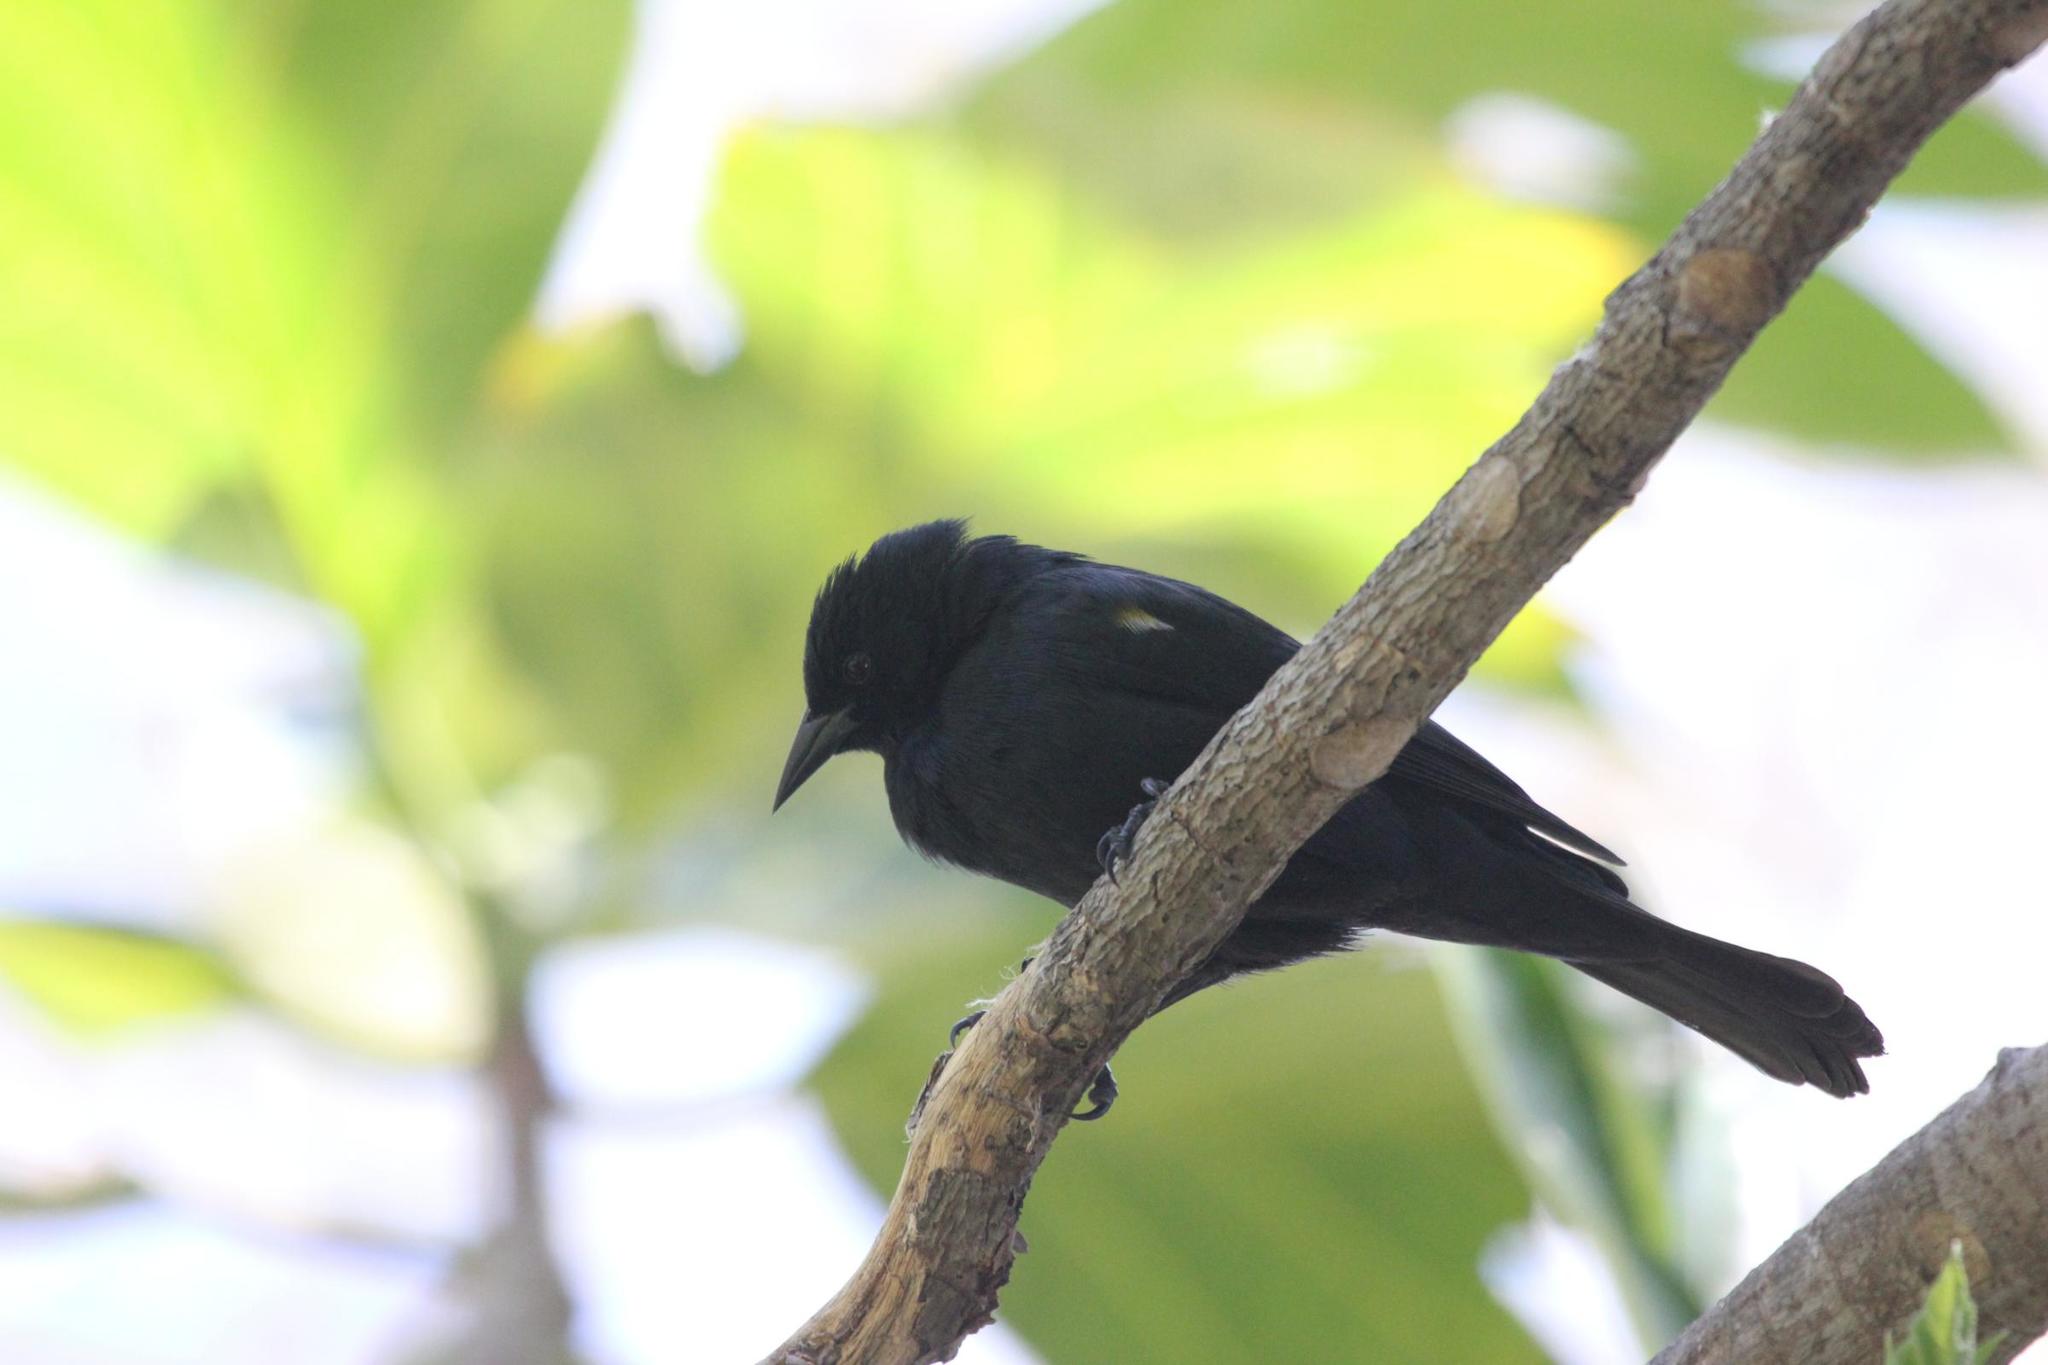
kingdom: Animalia
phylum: Chordata
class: Aves
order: Passeriformes
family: Icteridae
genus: Agelaius
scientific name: Agelaius xanthomus
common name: Yellow-shouldered blackbird
